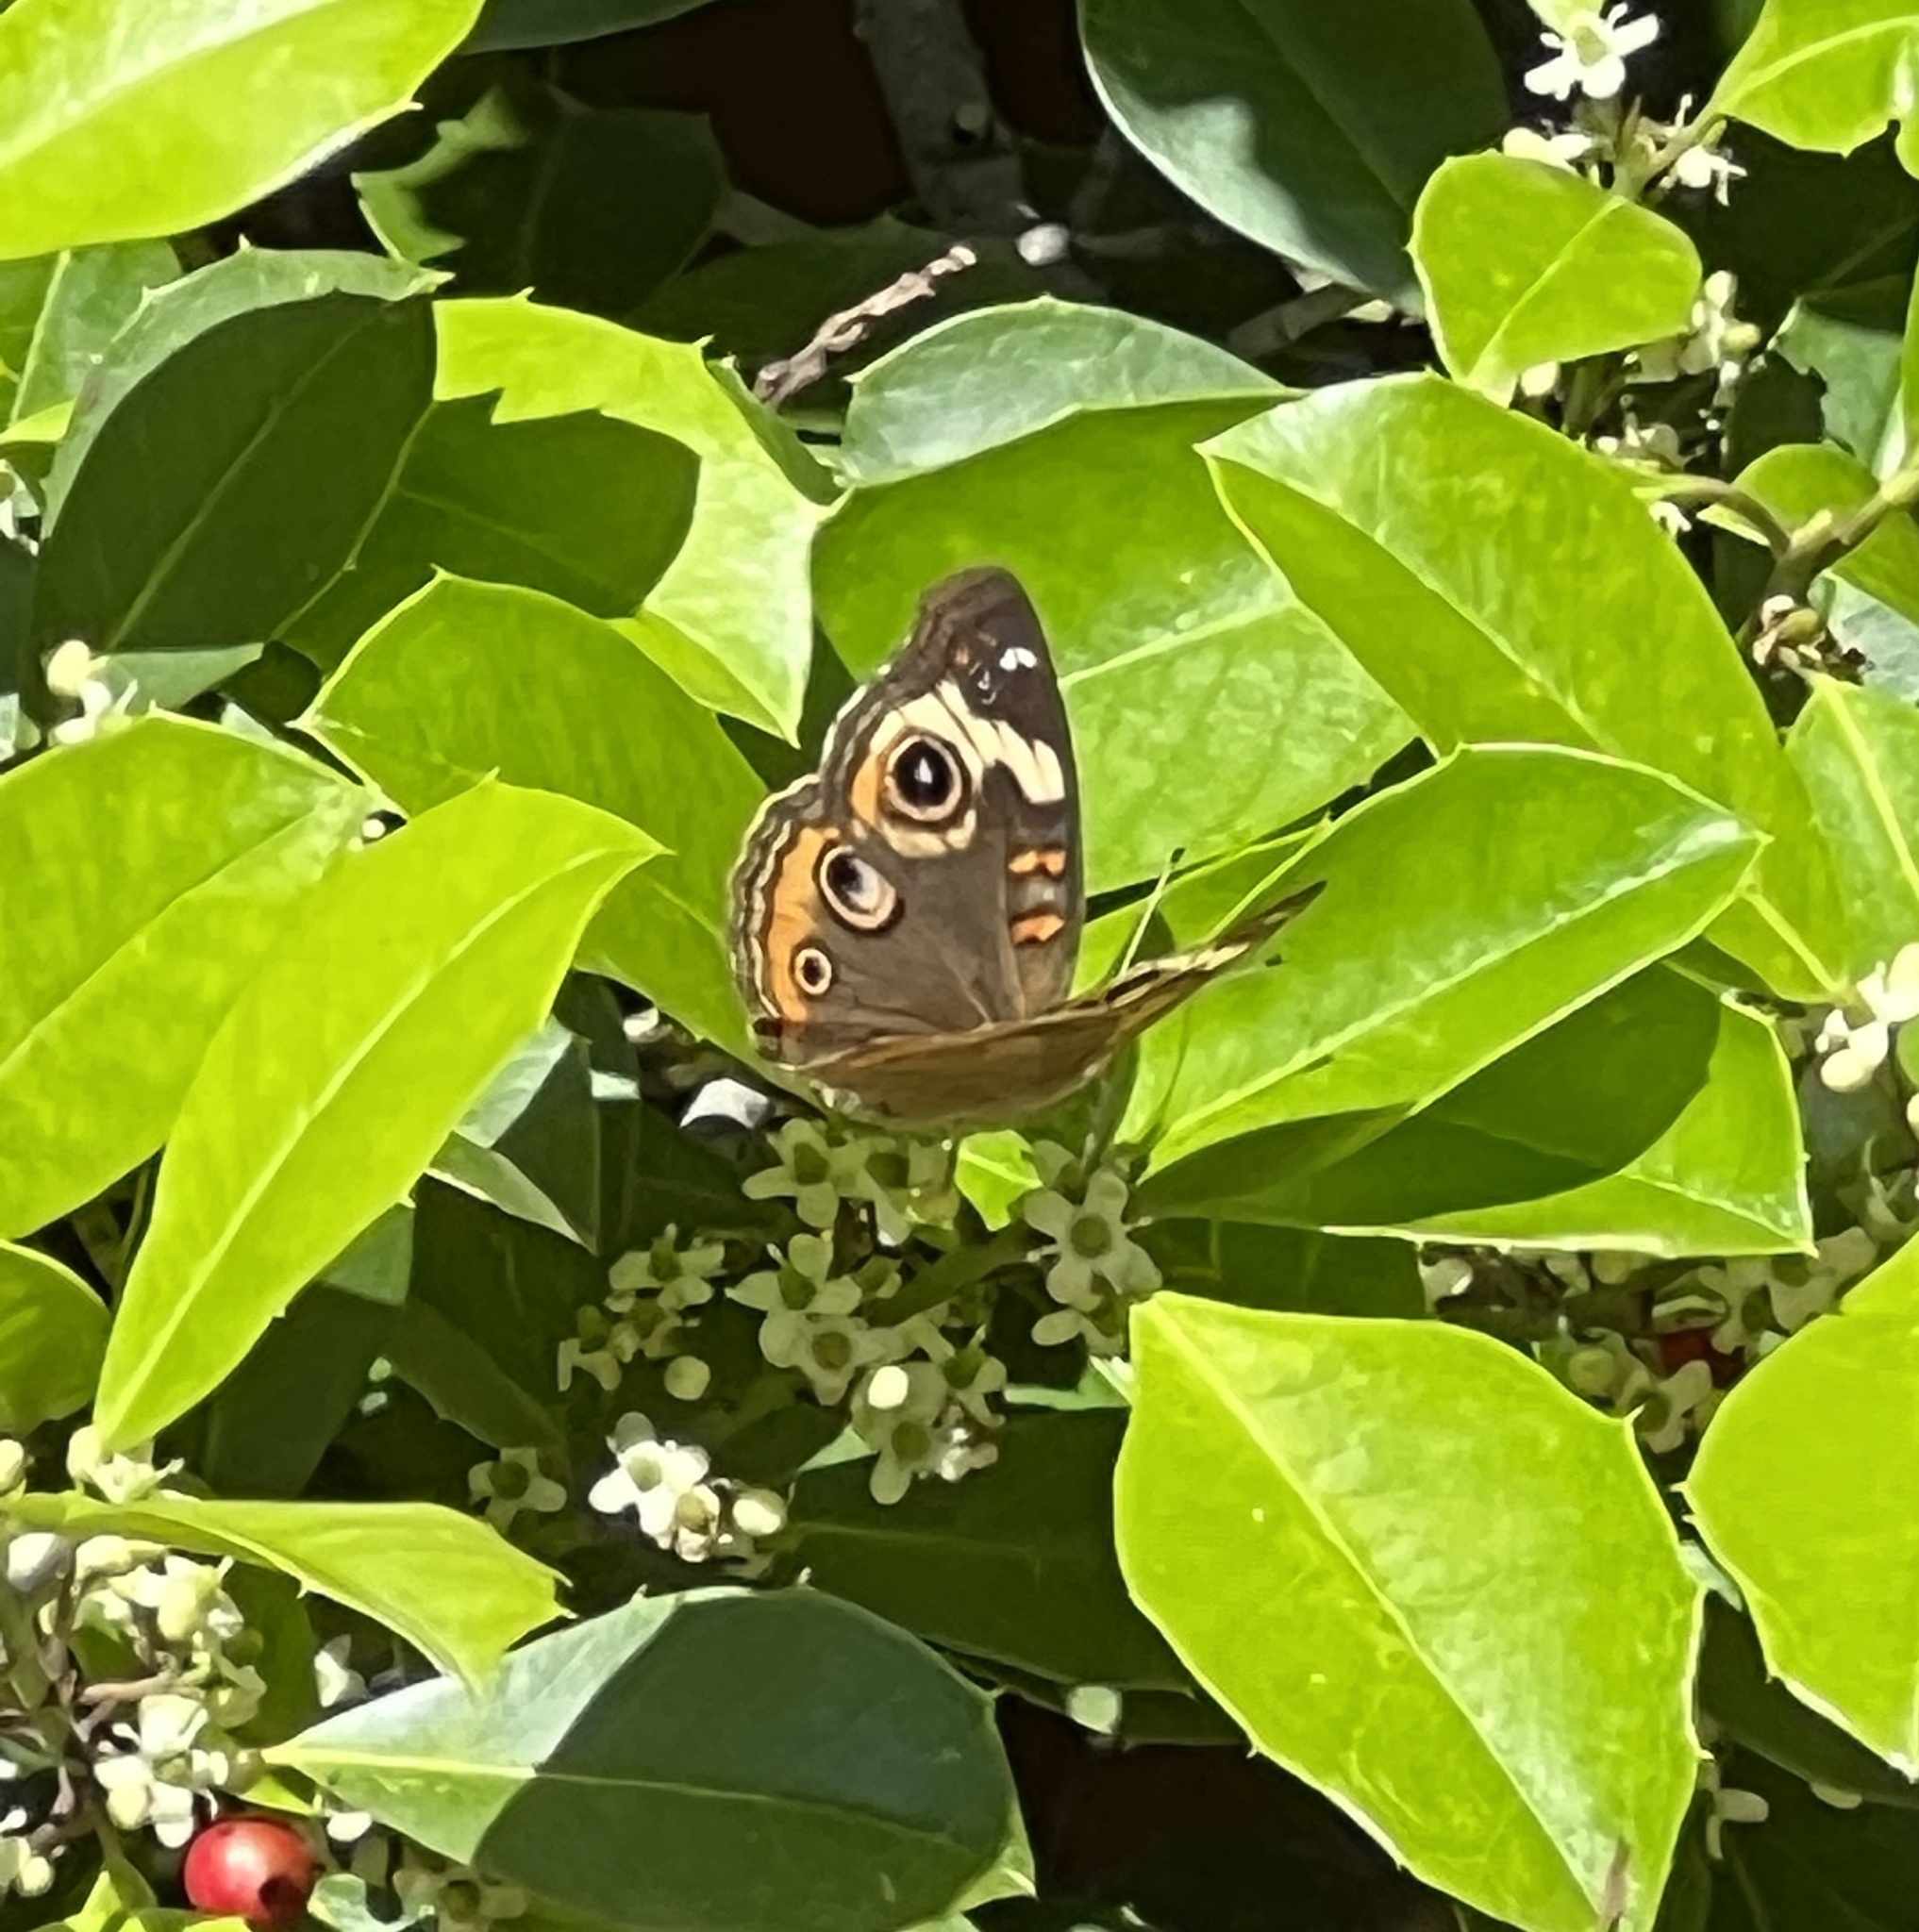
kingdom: Animalia
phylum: Arthropoda
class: Insecta
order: Lepidoptera
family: Nymphalidae
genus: Junonia
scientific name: Junonia coenia
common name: Common buckeye
